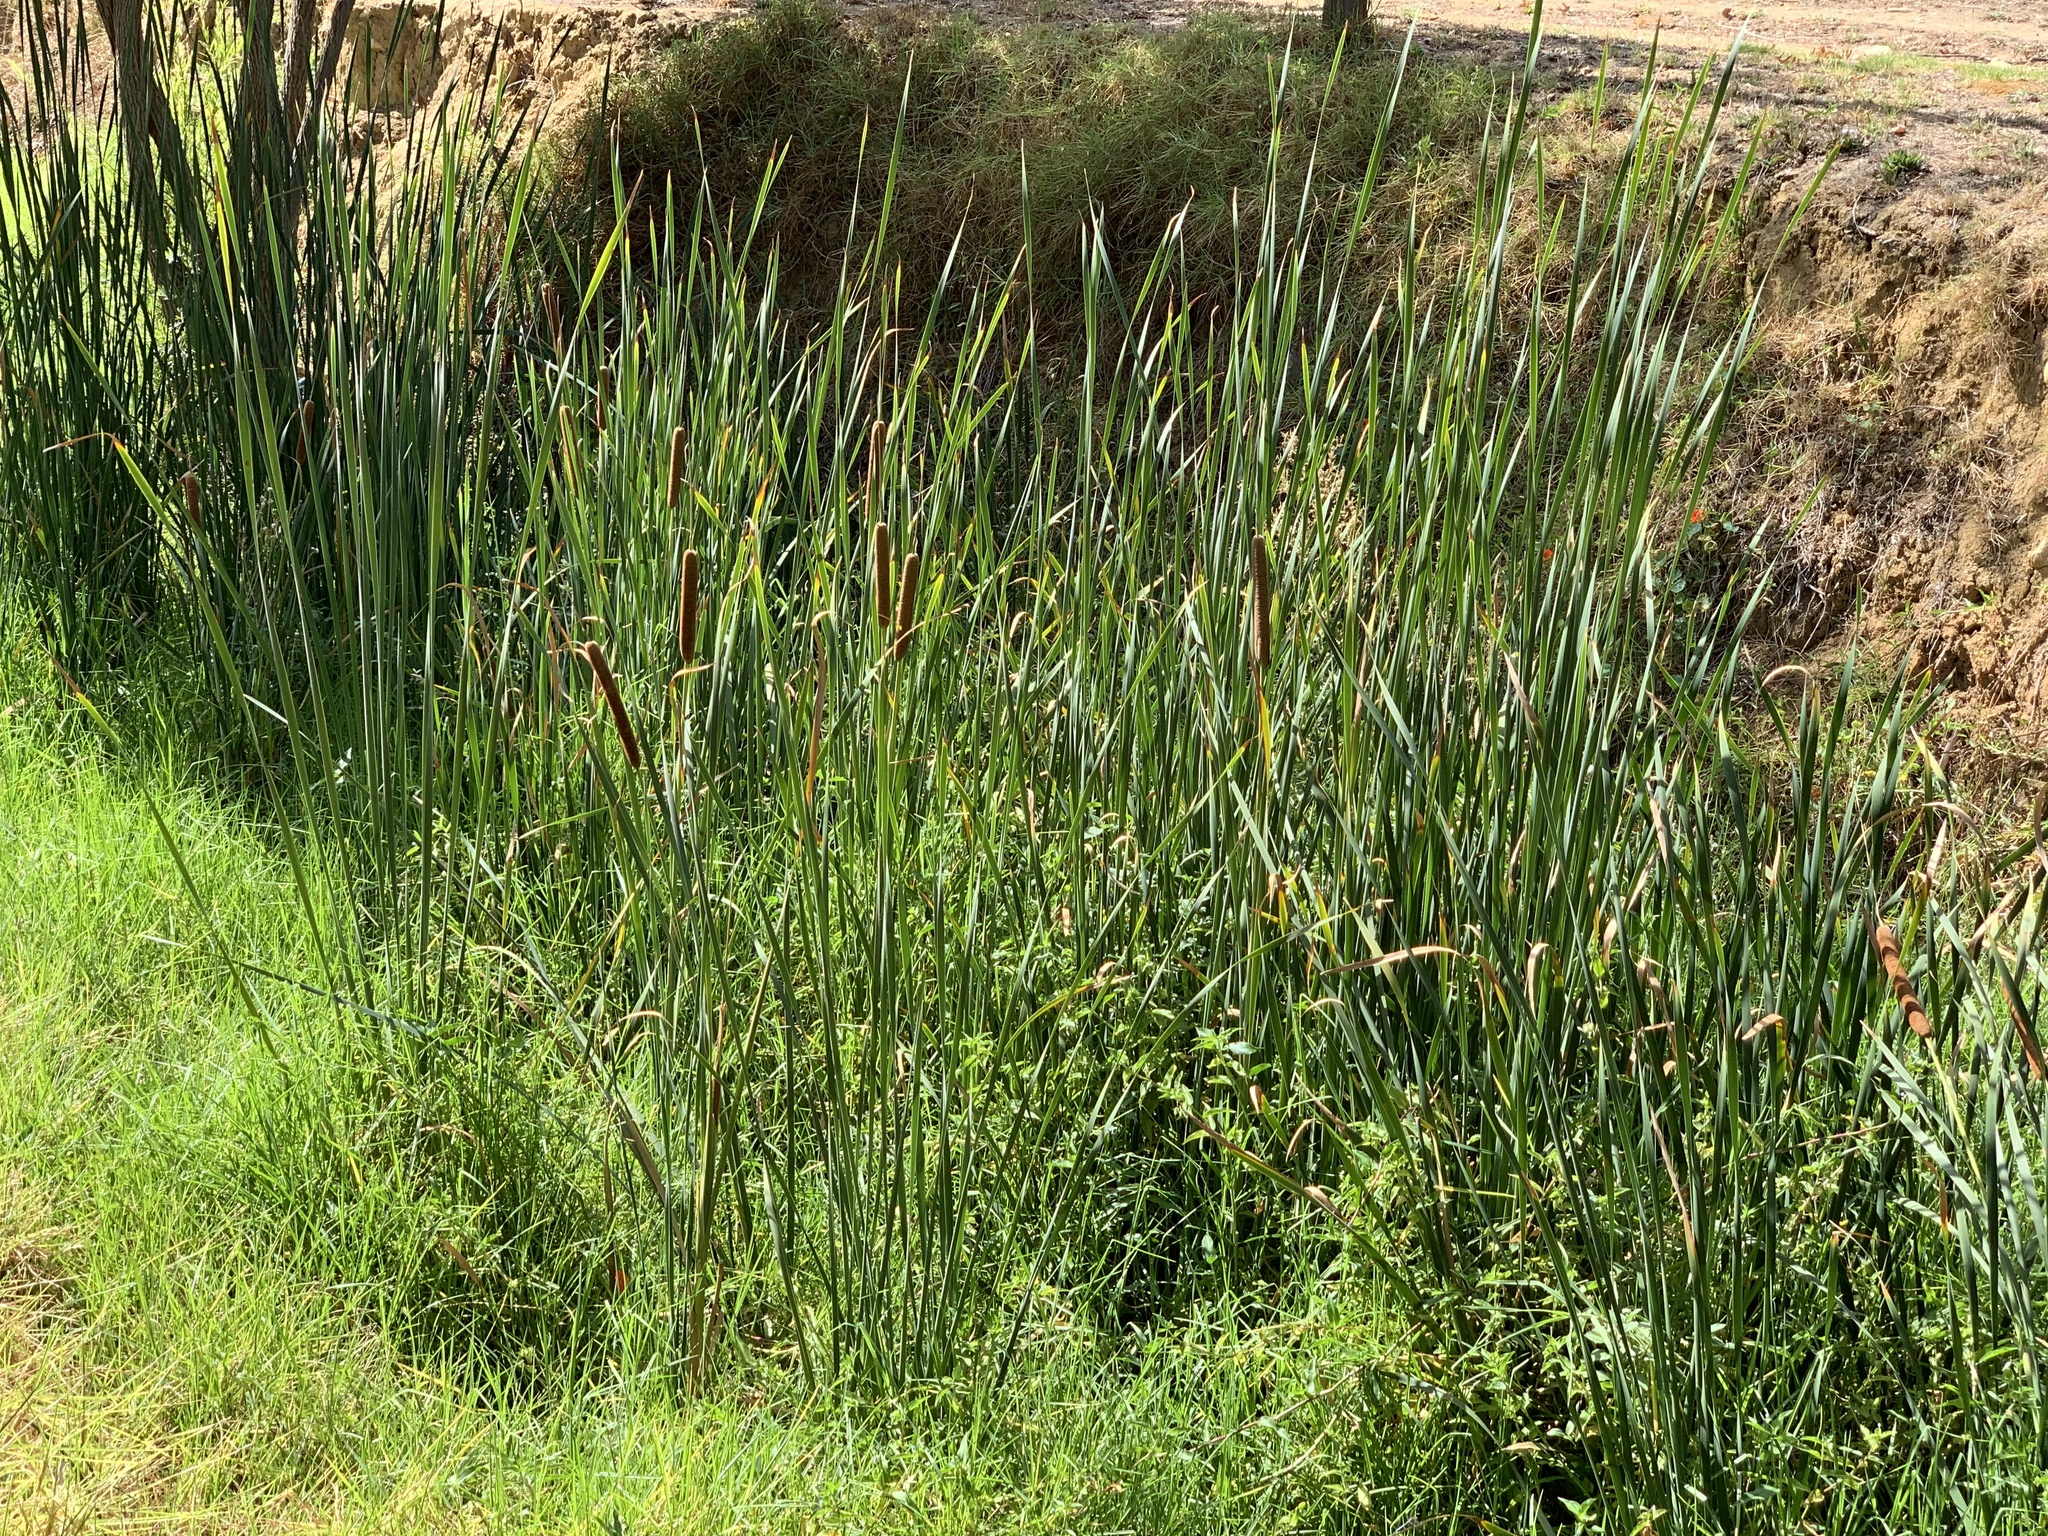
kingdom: Plantae
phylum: Tracheophyta
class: Liliopsida
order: Poales
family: Typhaceae
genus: Typha
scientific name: Typha capensis
